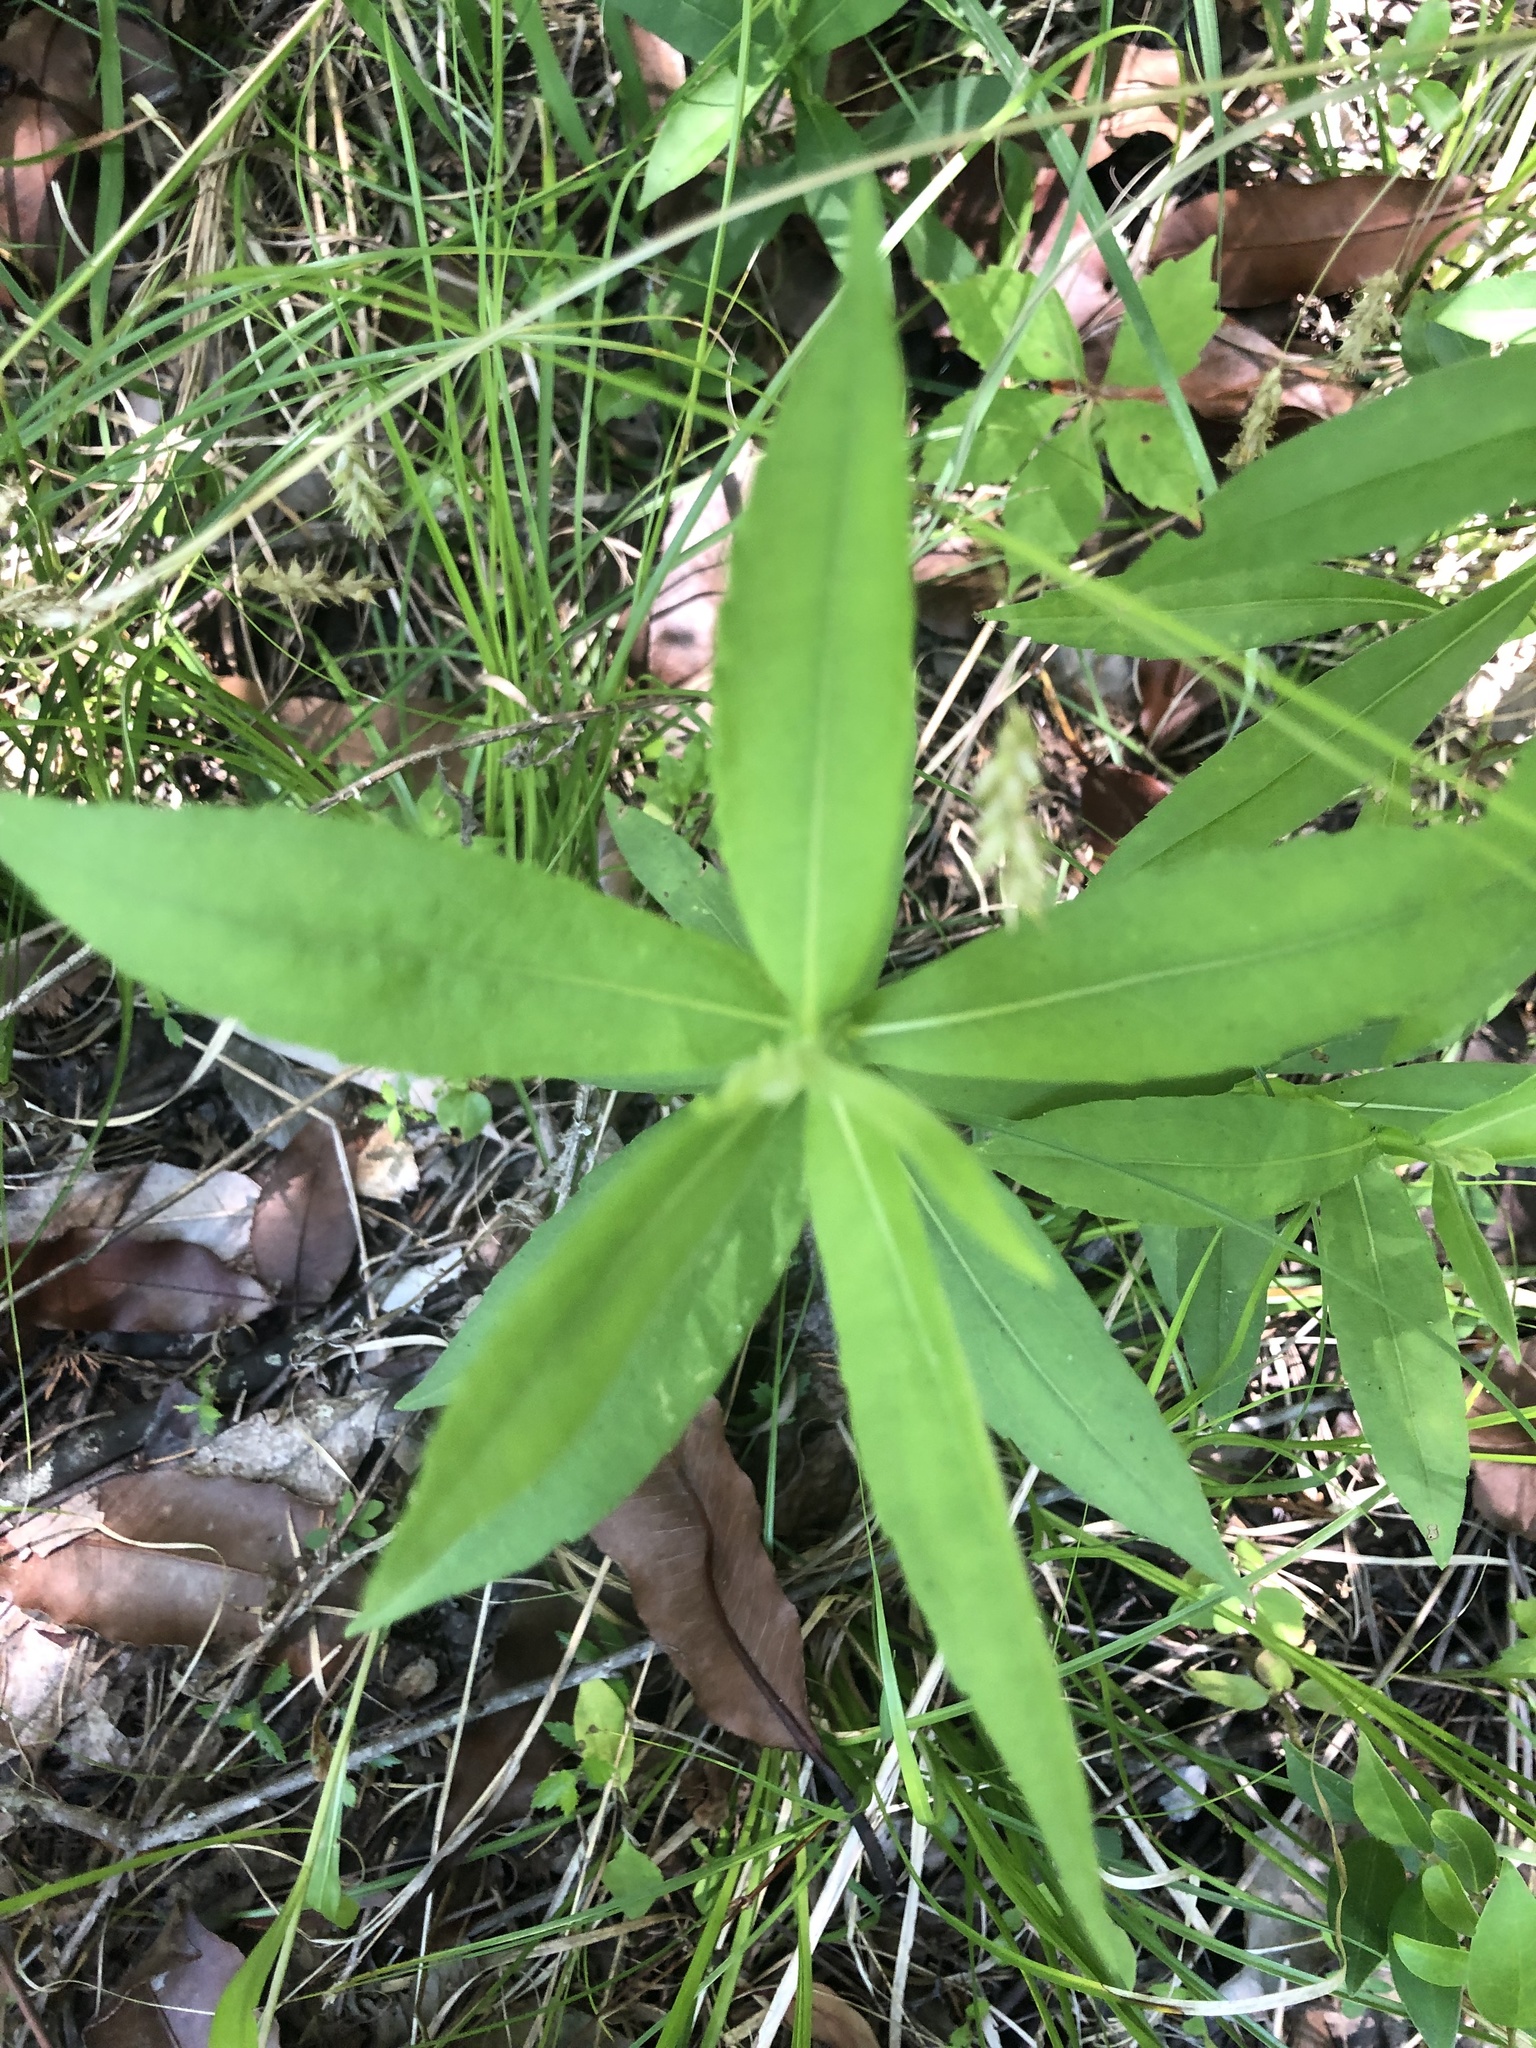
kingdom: Plantae
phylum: Tracheophyta
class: Magnoliopsida
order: Asterales
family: Asteraceae
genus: Helenium
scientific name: Helenium autumnale
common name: Sneezeweed
